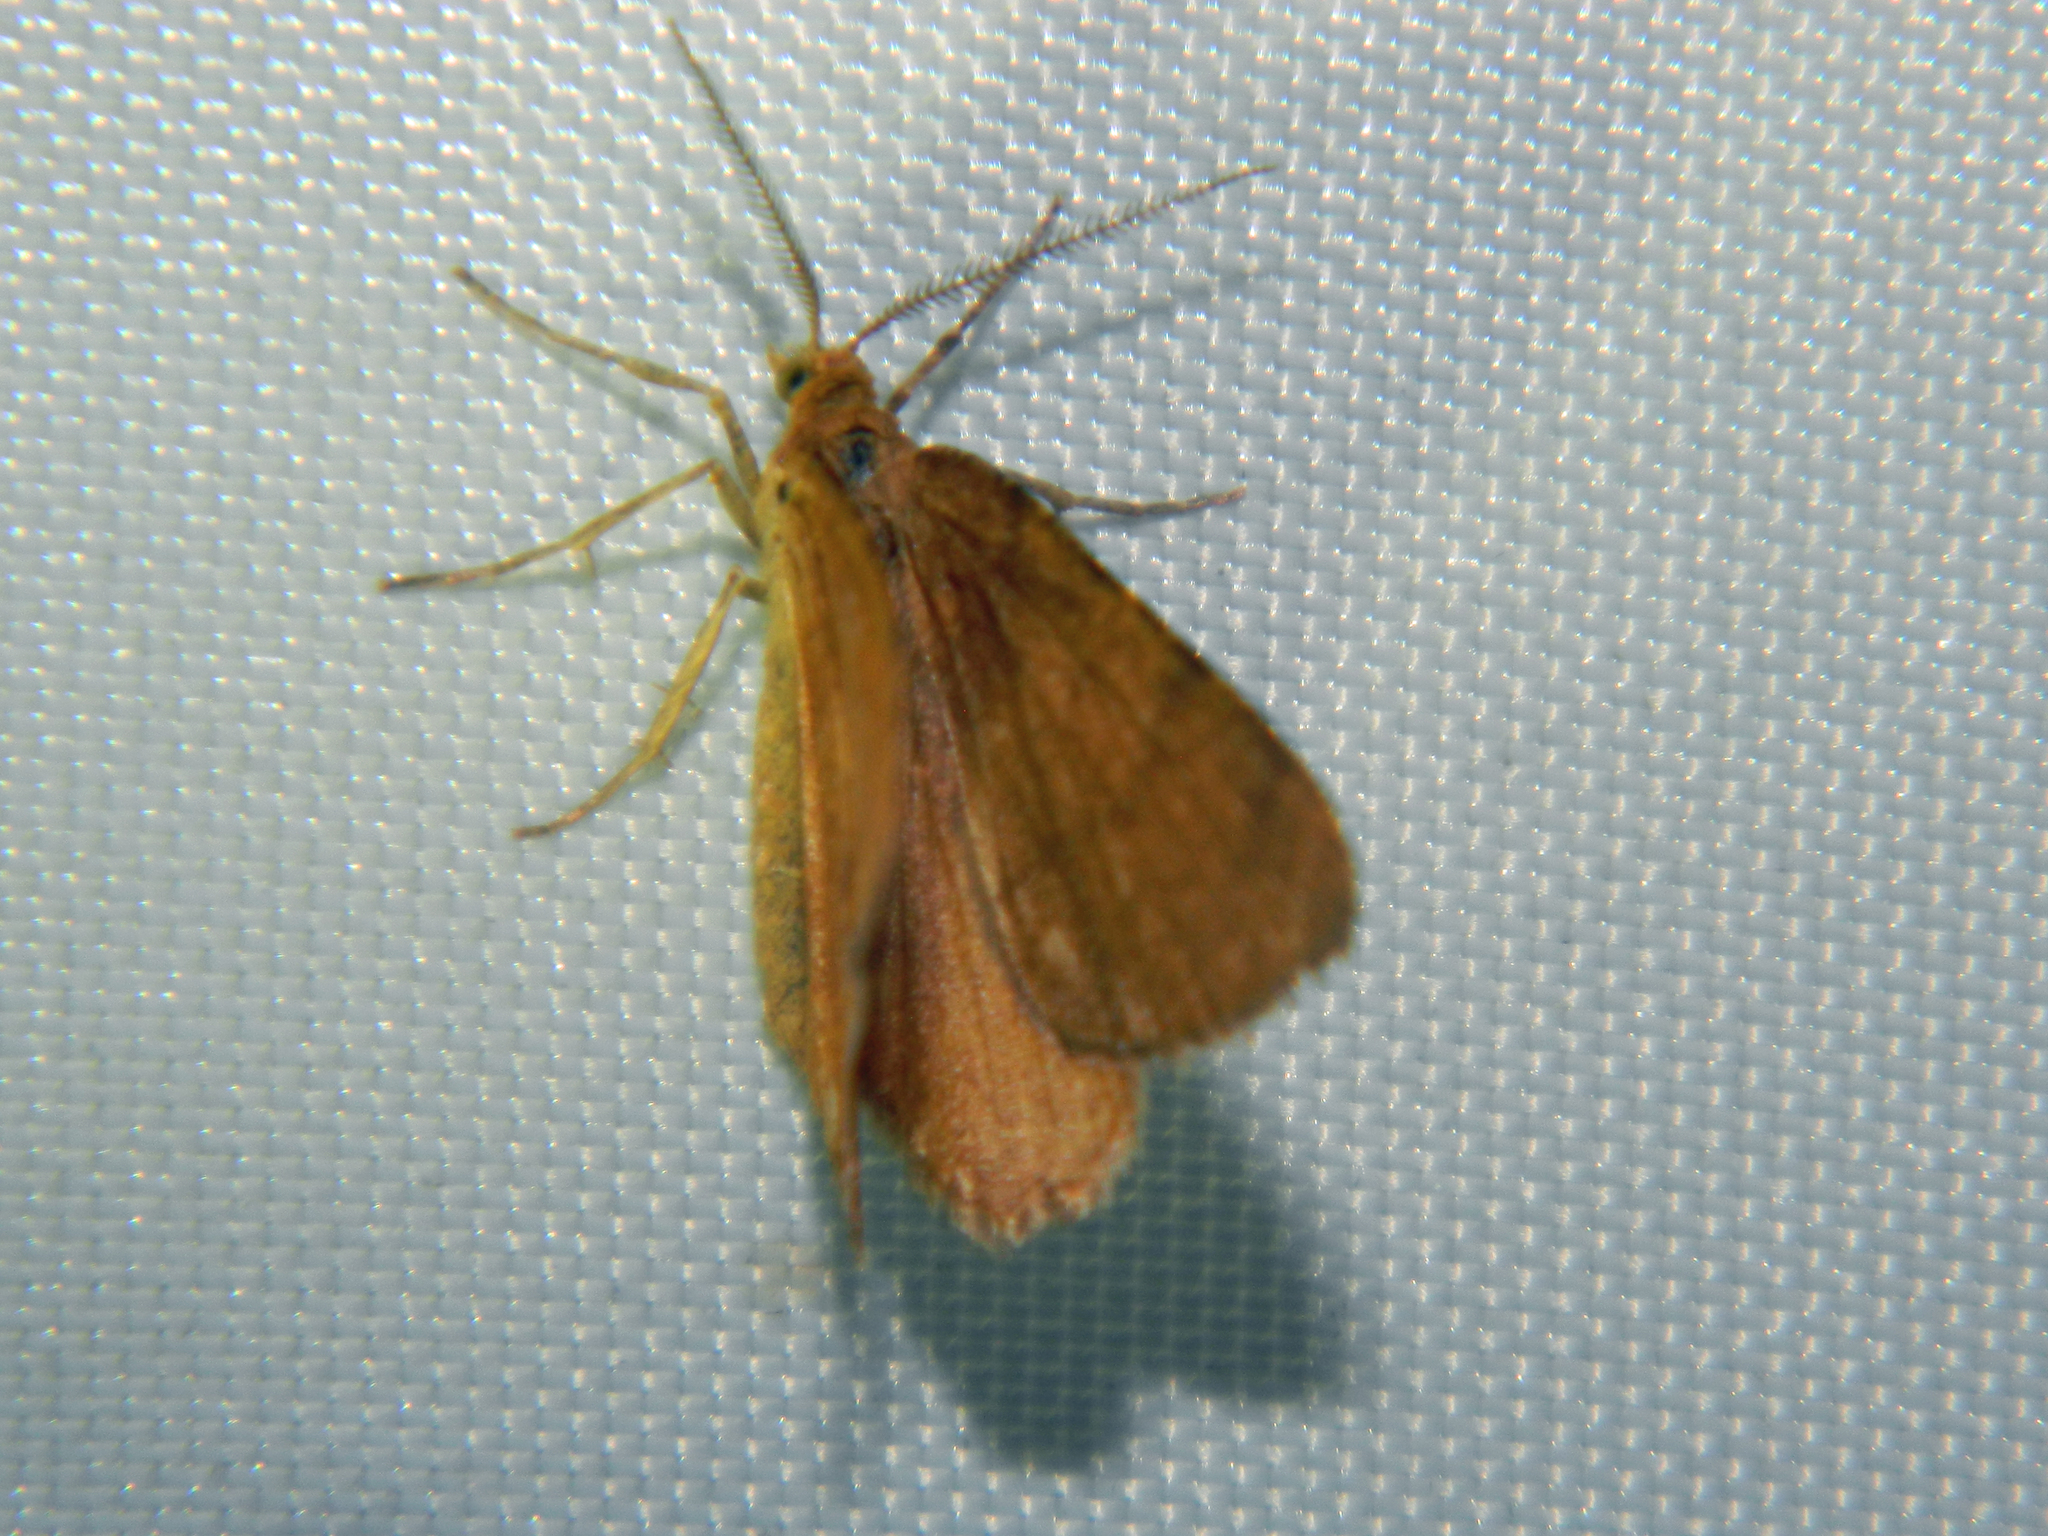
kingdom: Animalia
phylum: Arthropoda
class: Insecta
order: Lepidoptera
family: Geometridae
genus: Macaria
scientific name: Macaria brunneata
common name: Rannoch looper
